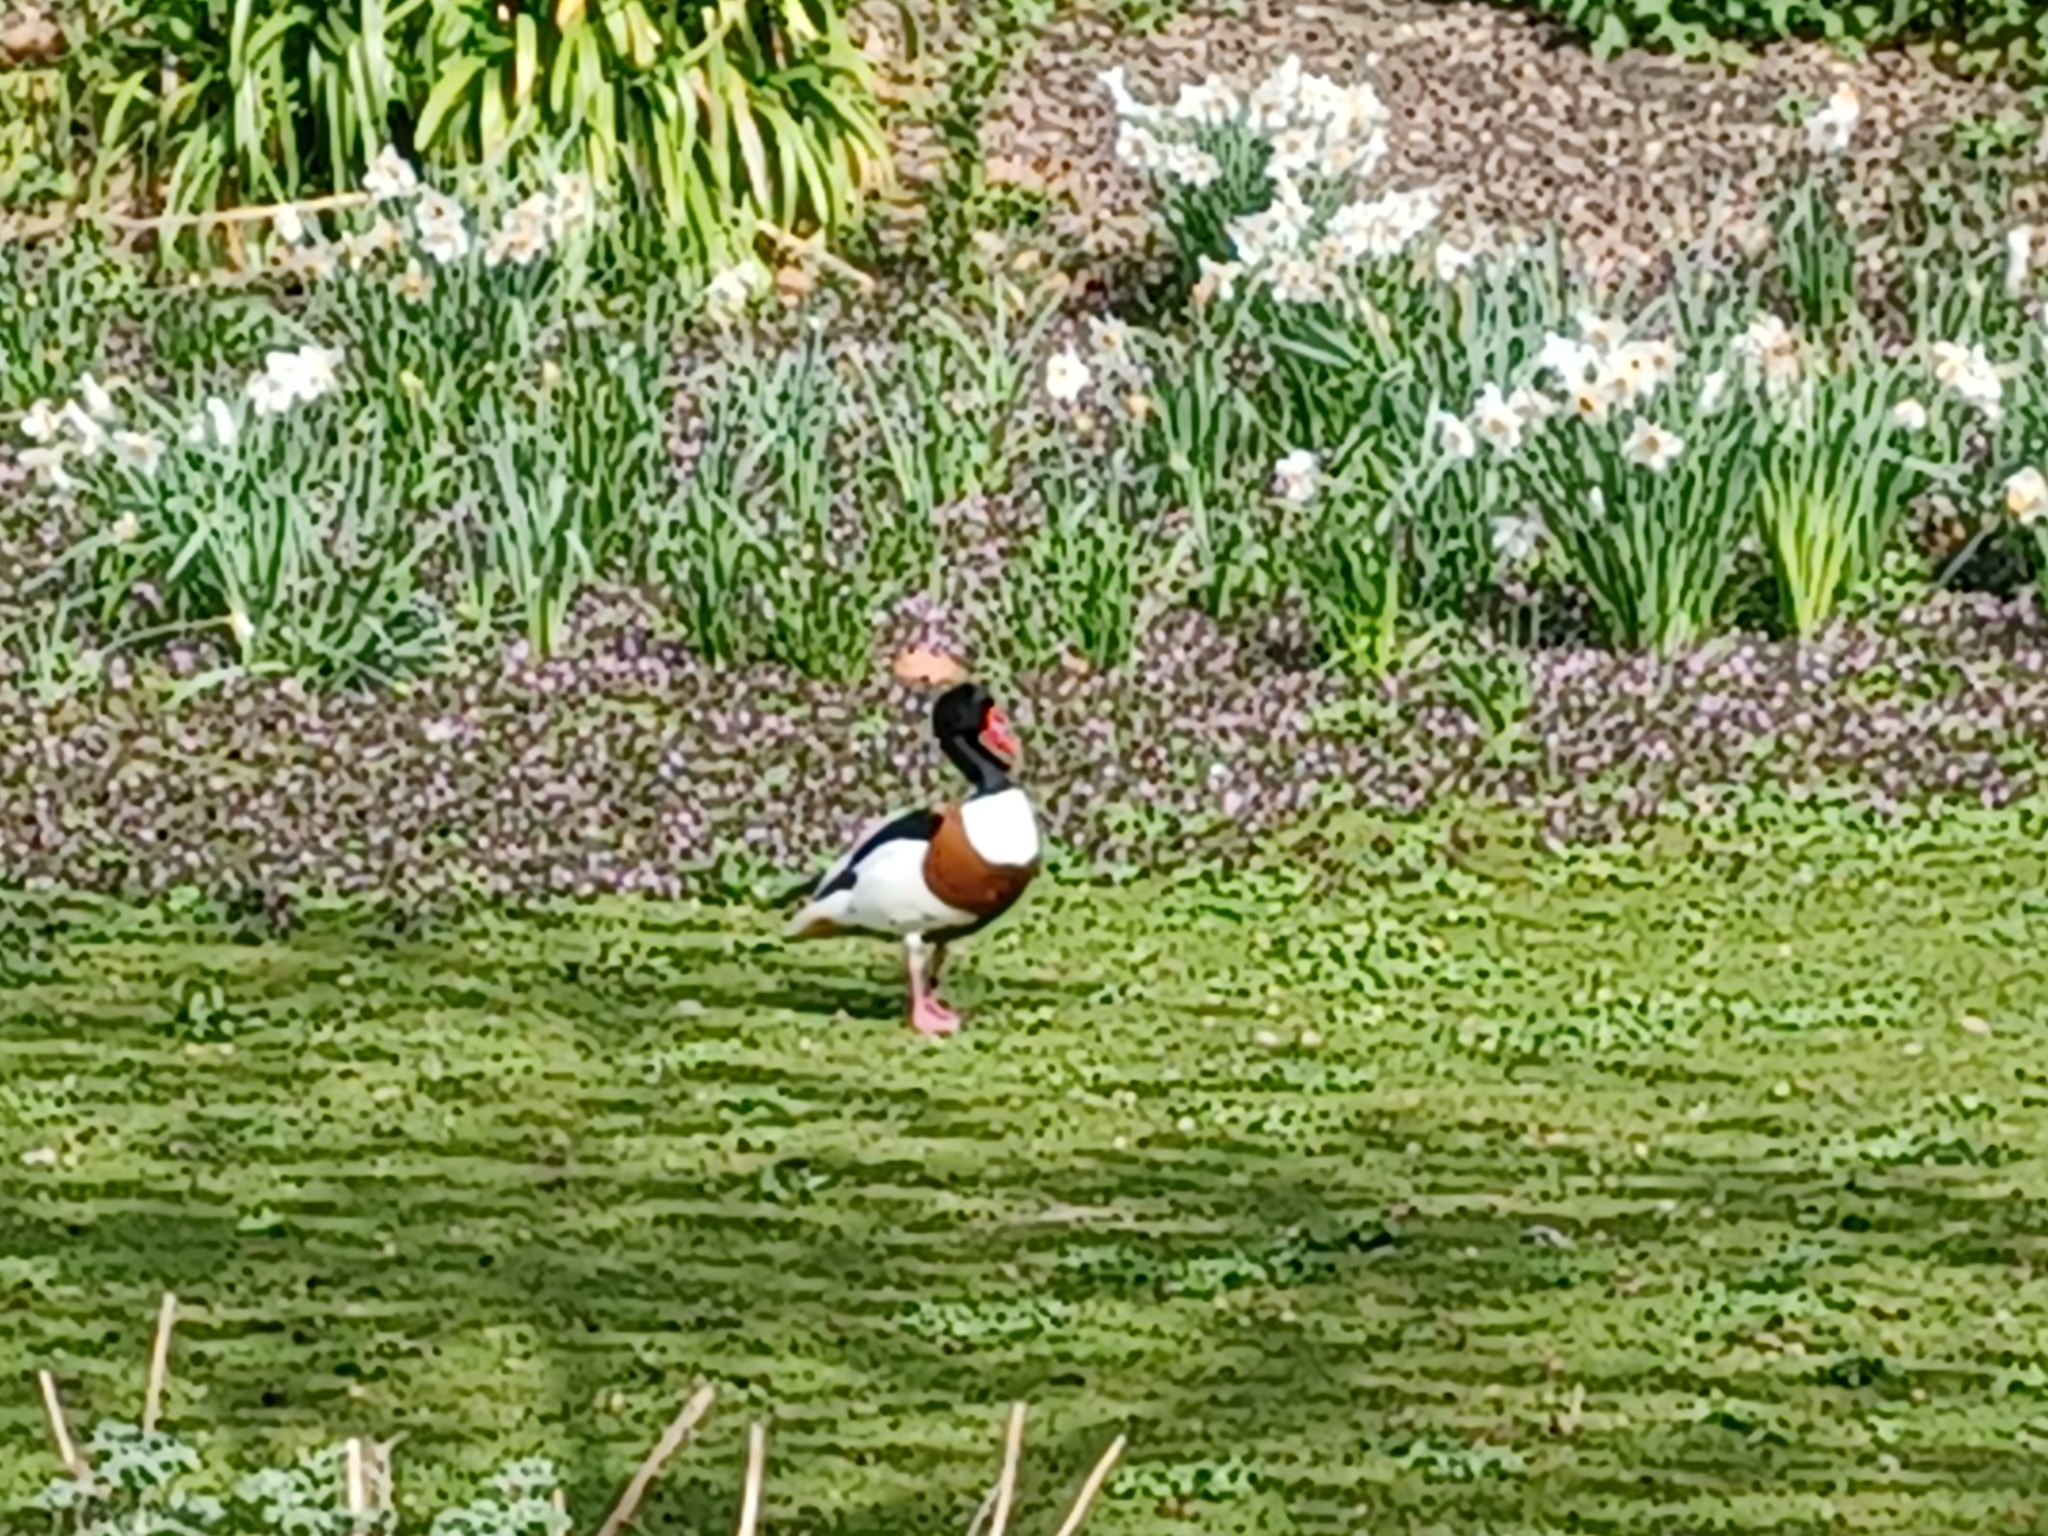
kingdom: Animalia
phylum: Chordata
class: Aves
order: Anseriformes
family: Anatidae
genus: Tadorna
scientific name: Tadorna tadorna
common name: Common shelduck
